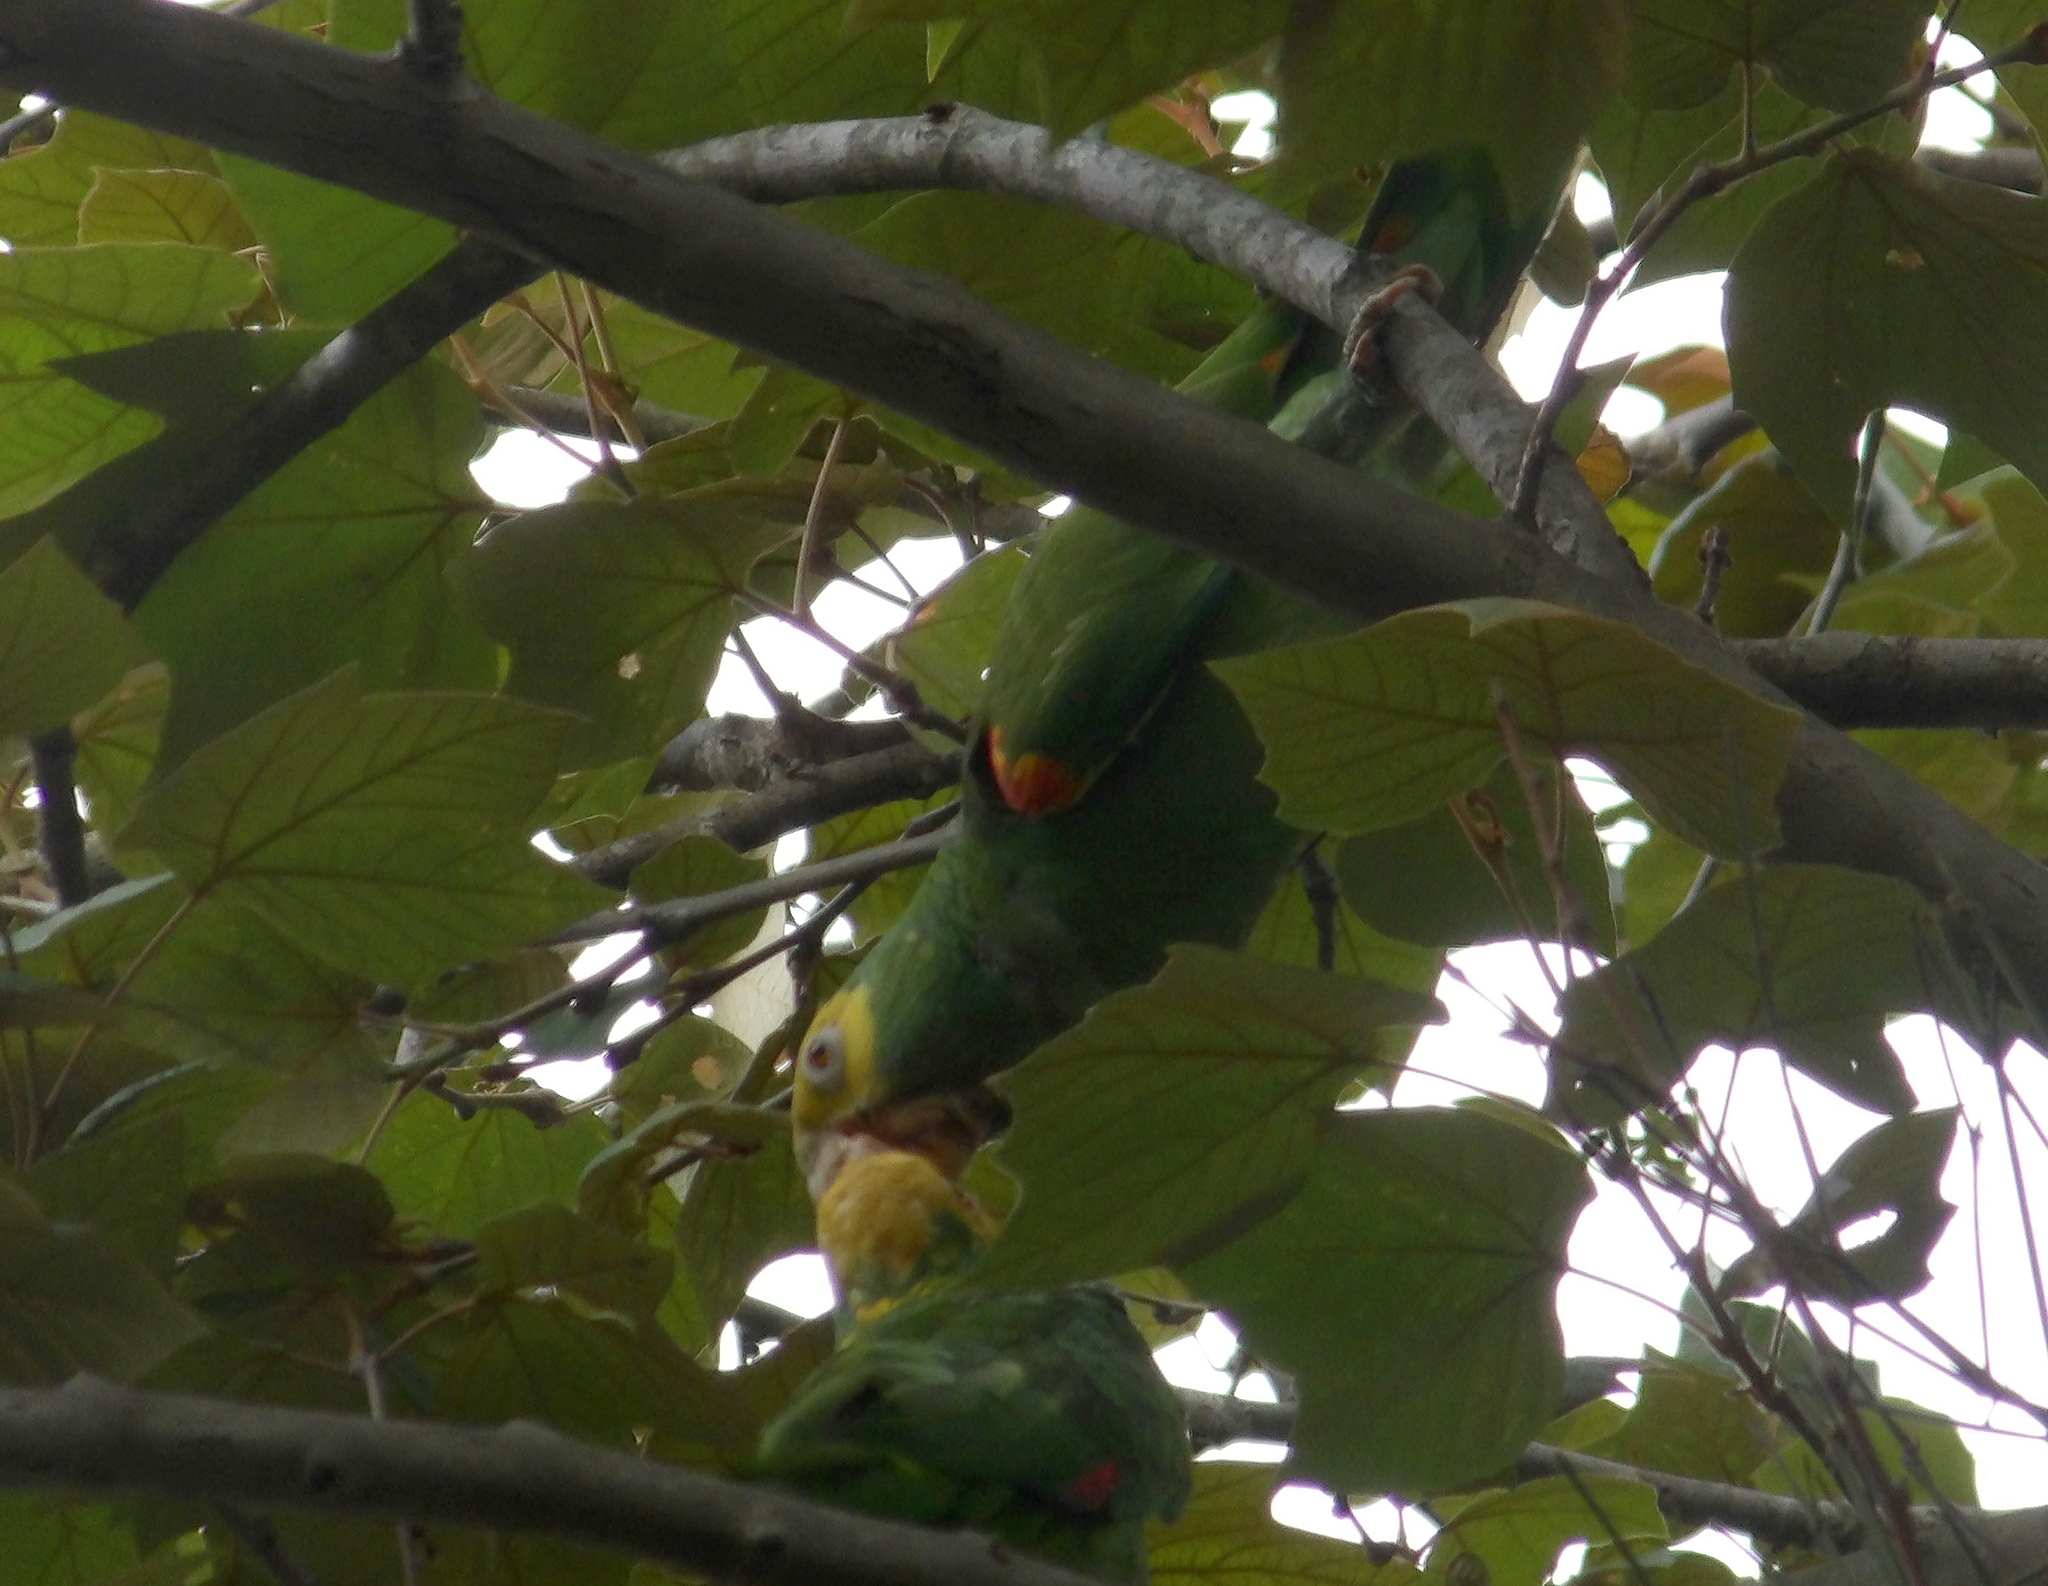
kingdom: Animalia
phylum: Chordata
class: Aves
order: Psittaciformes
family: Psittacidae
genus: Amazona
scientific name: Amazona oratrix
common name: Yellow-headed amazon
